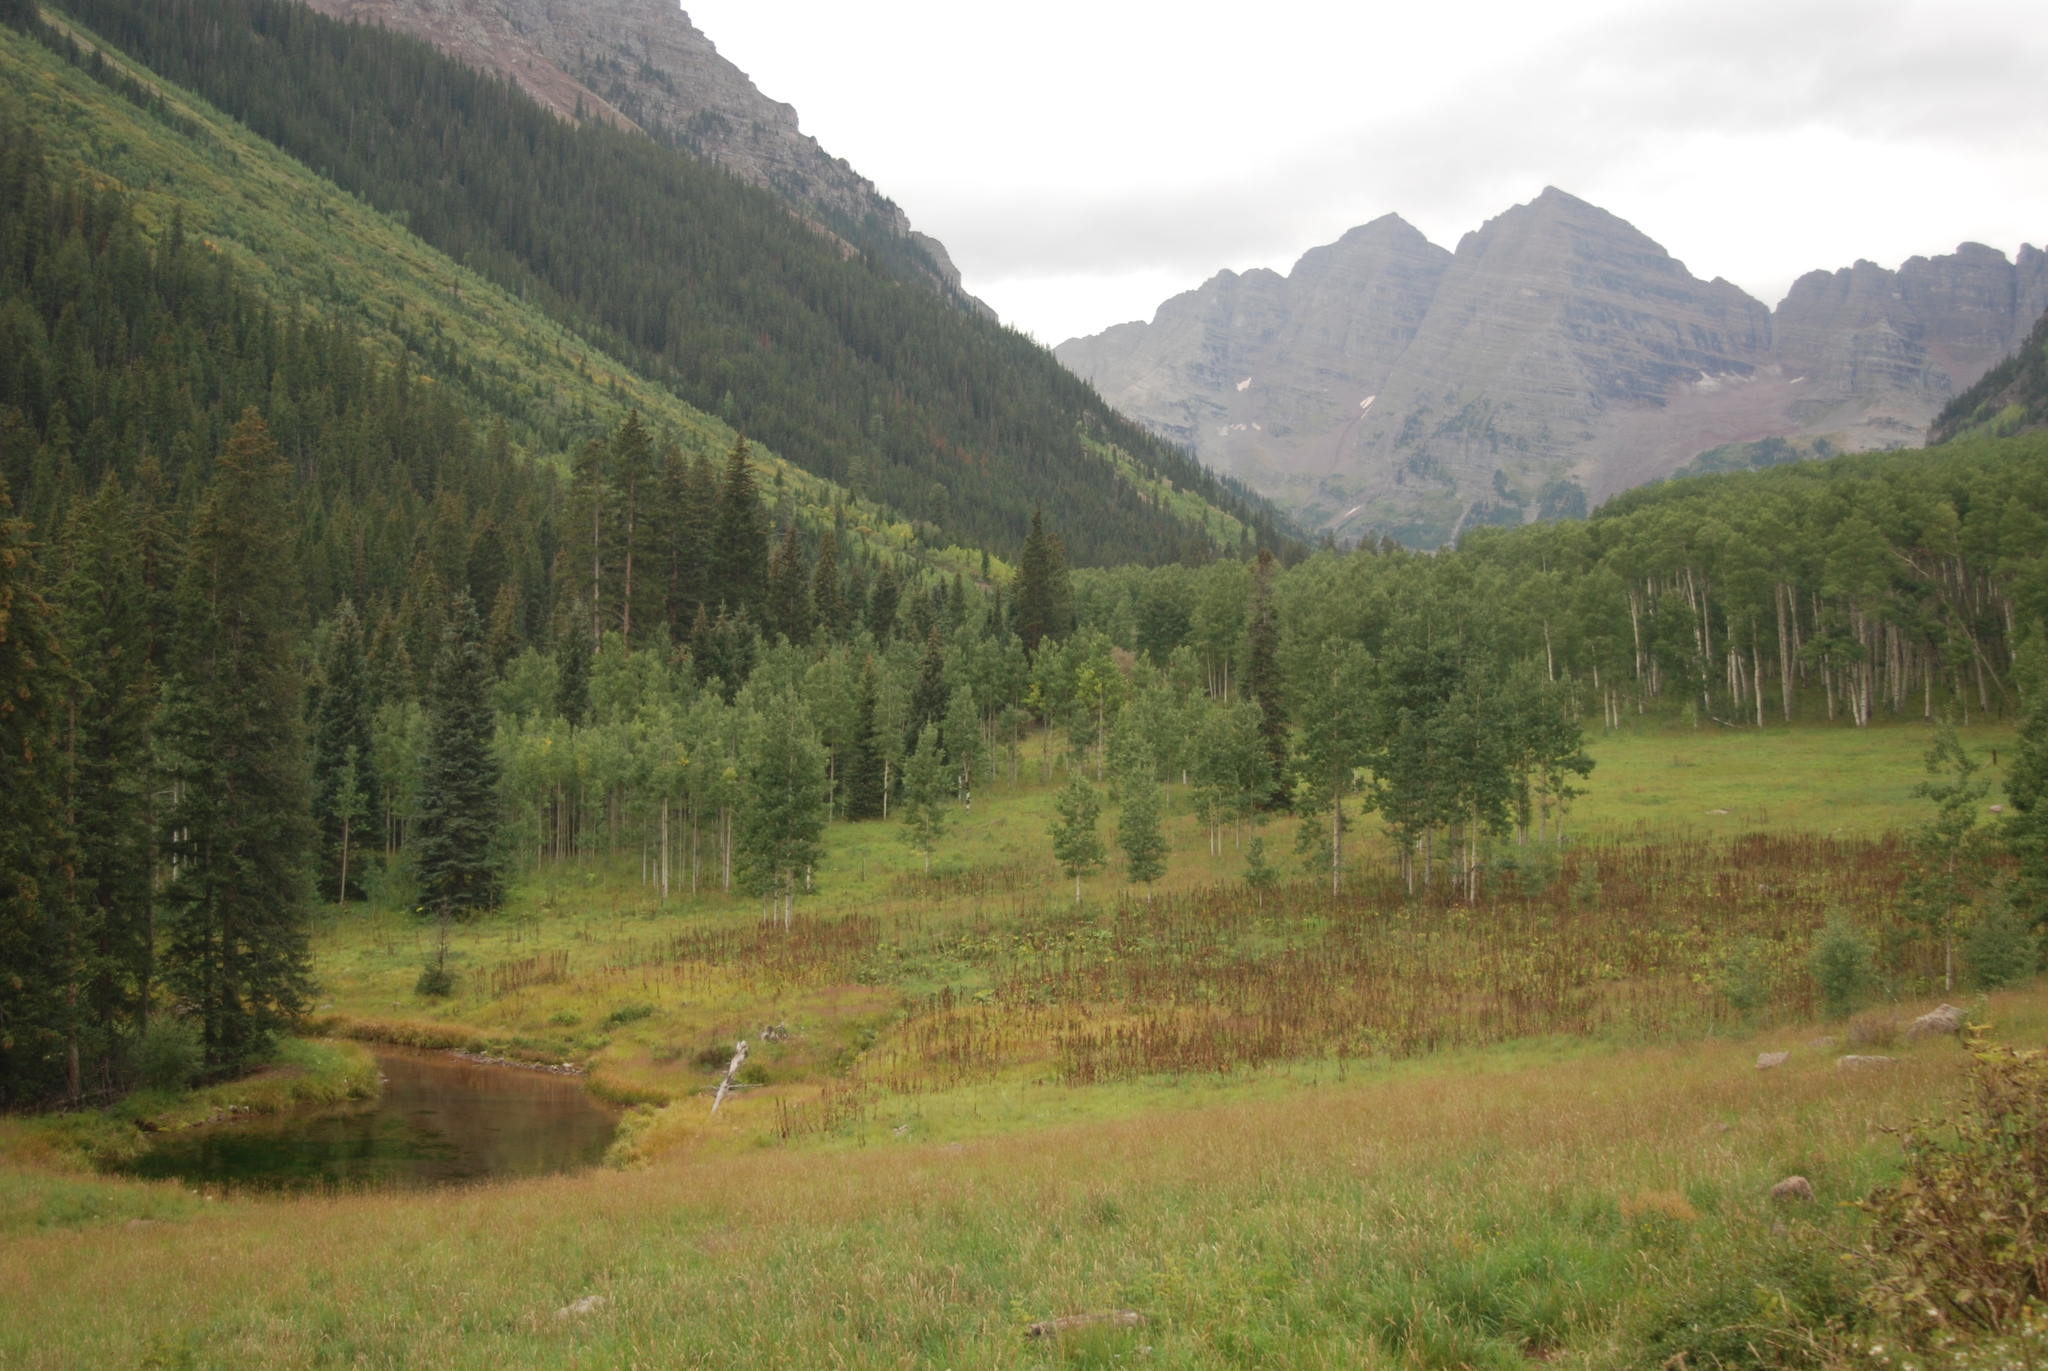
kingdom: Plantae
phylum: Tracheophyta
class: Magnoliopsida
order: Malpighiales
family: Salicaceae
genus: Populus
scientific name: Populus tremuloides
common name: Quaking aspen
